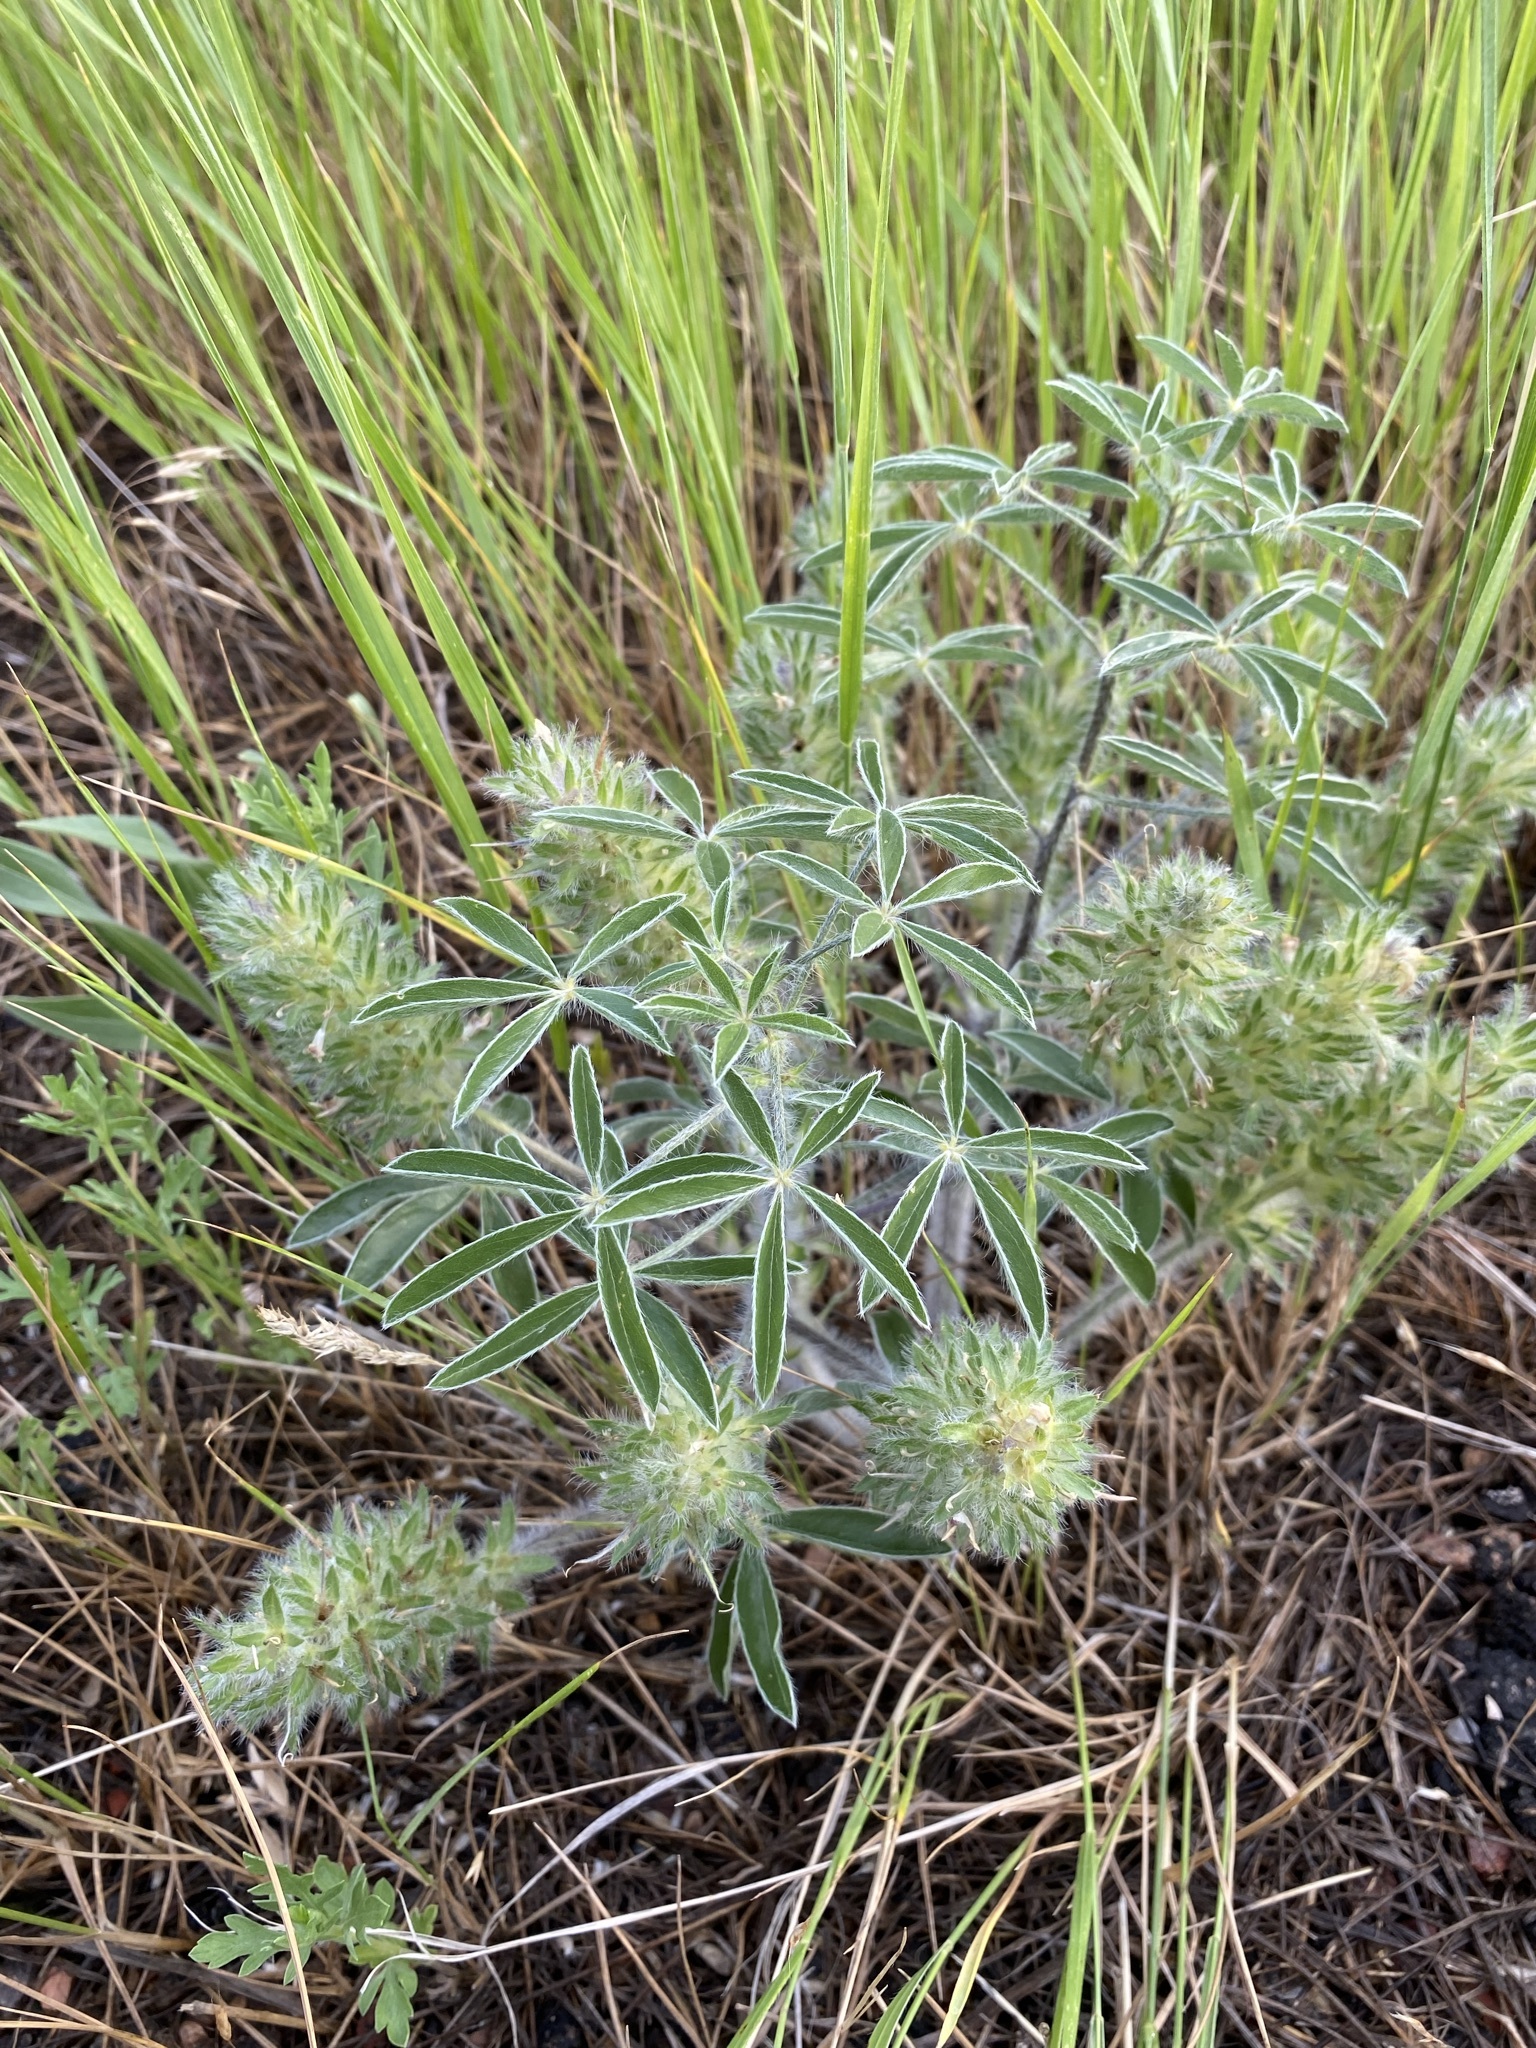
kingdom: Plantae
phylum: Tracheophyta
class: Magnoliopsida
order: Fabales
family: Fabaceae
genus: Pediomelum
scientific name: Pediomelum esculentum
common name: Indian-turnip
